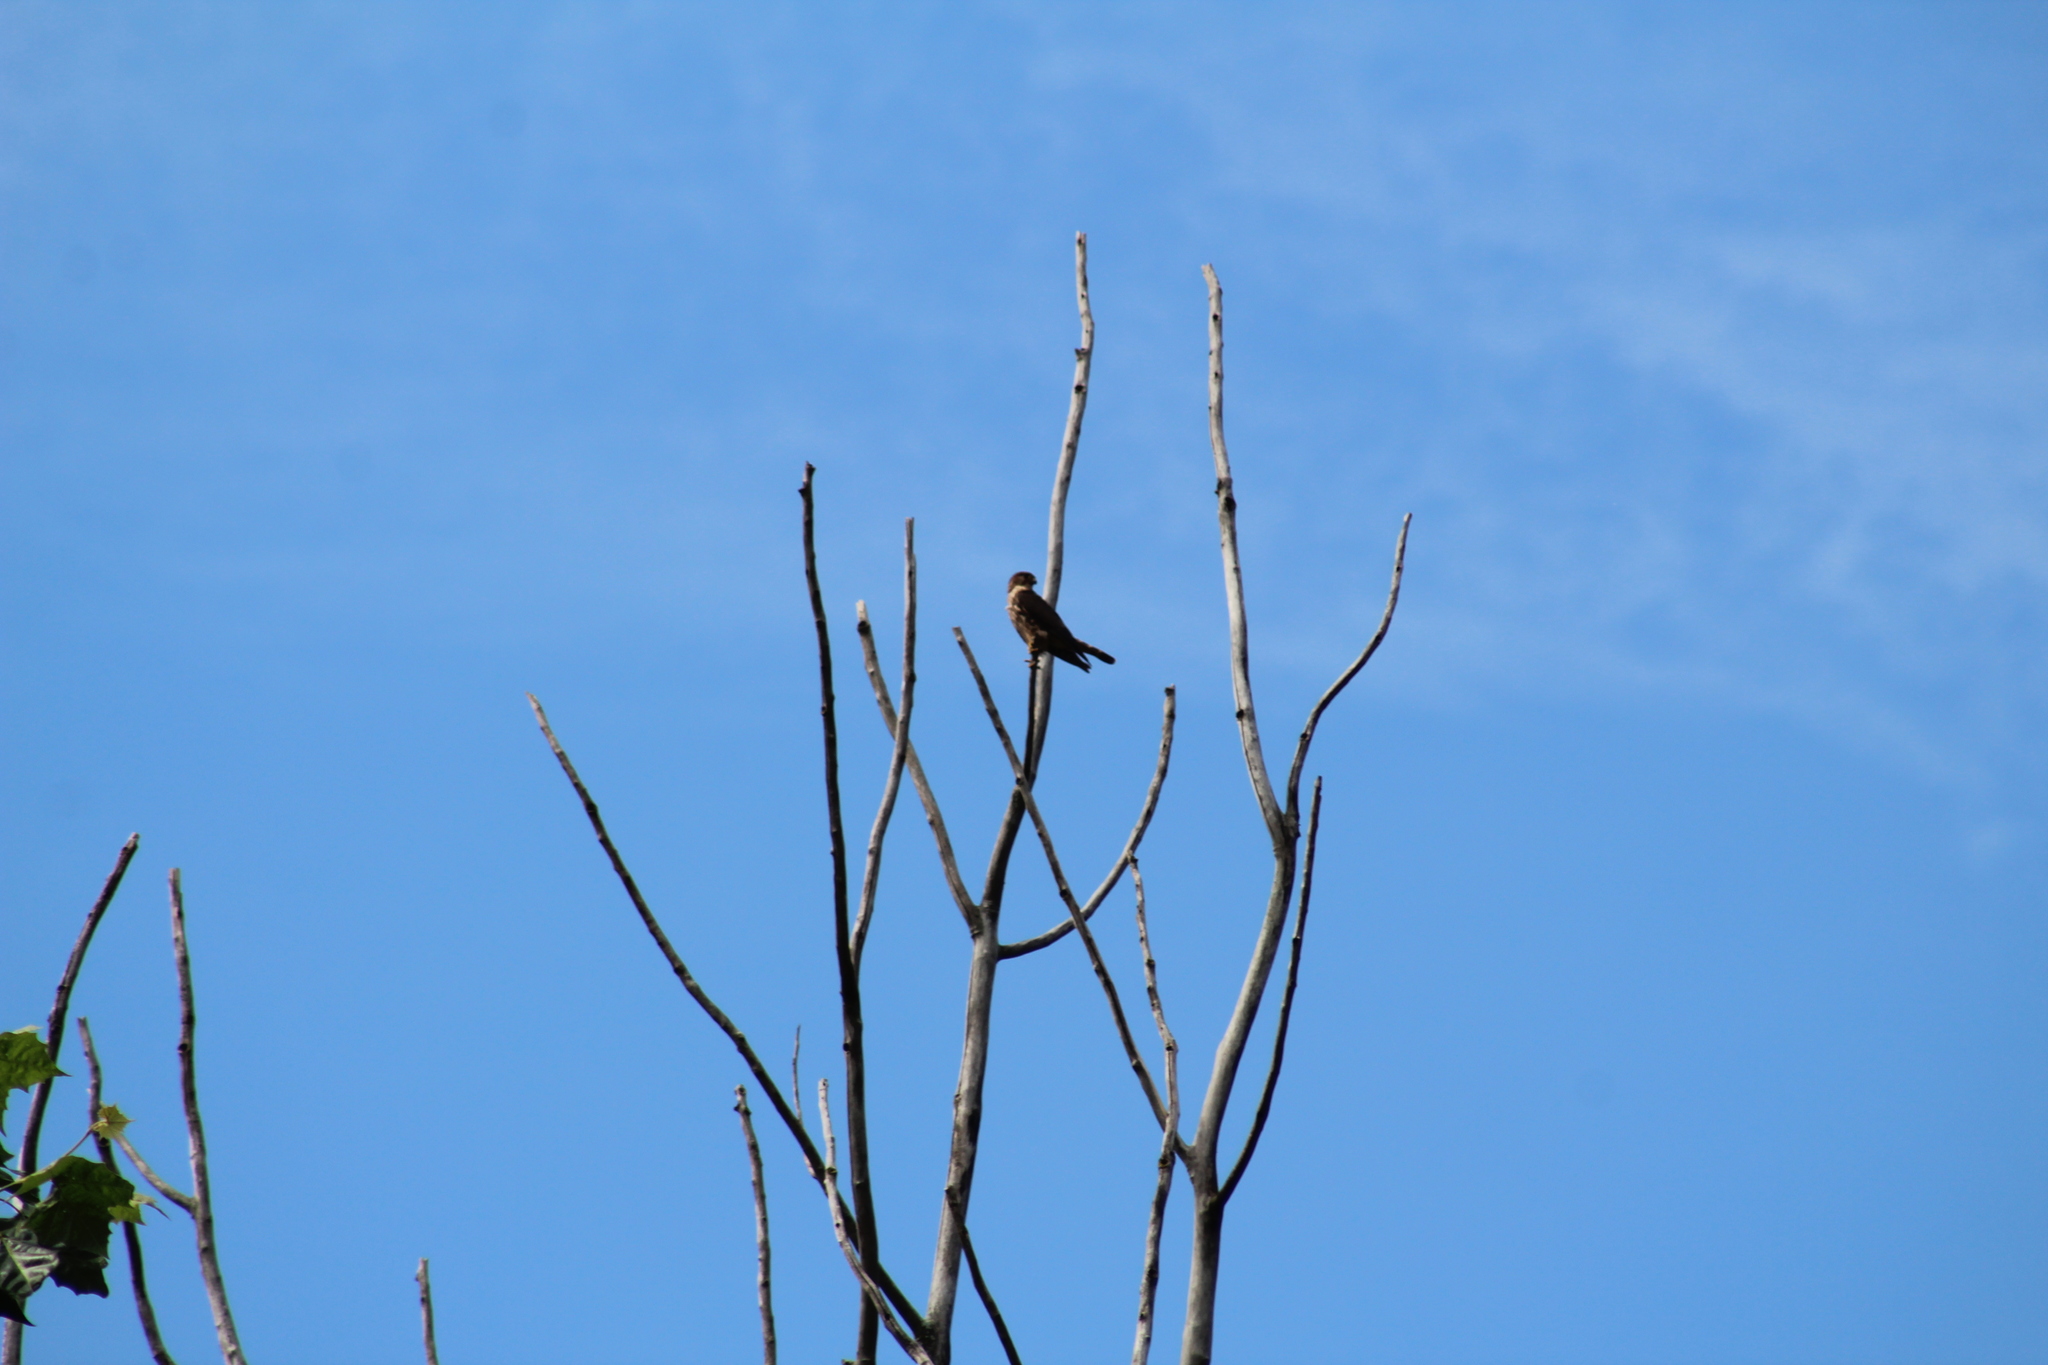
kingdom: Animalia
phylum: Chordata
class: Aves
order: Falconiformes
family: Falconidae
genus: Falco
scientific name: Falco columbarius
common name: Merlin
